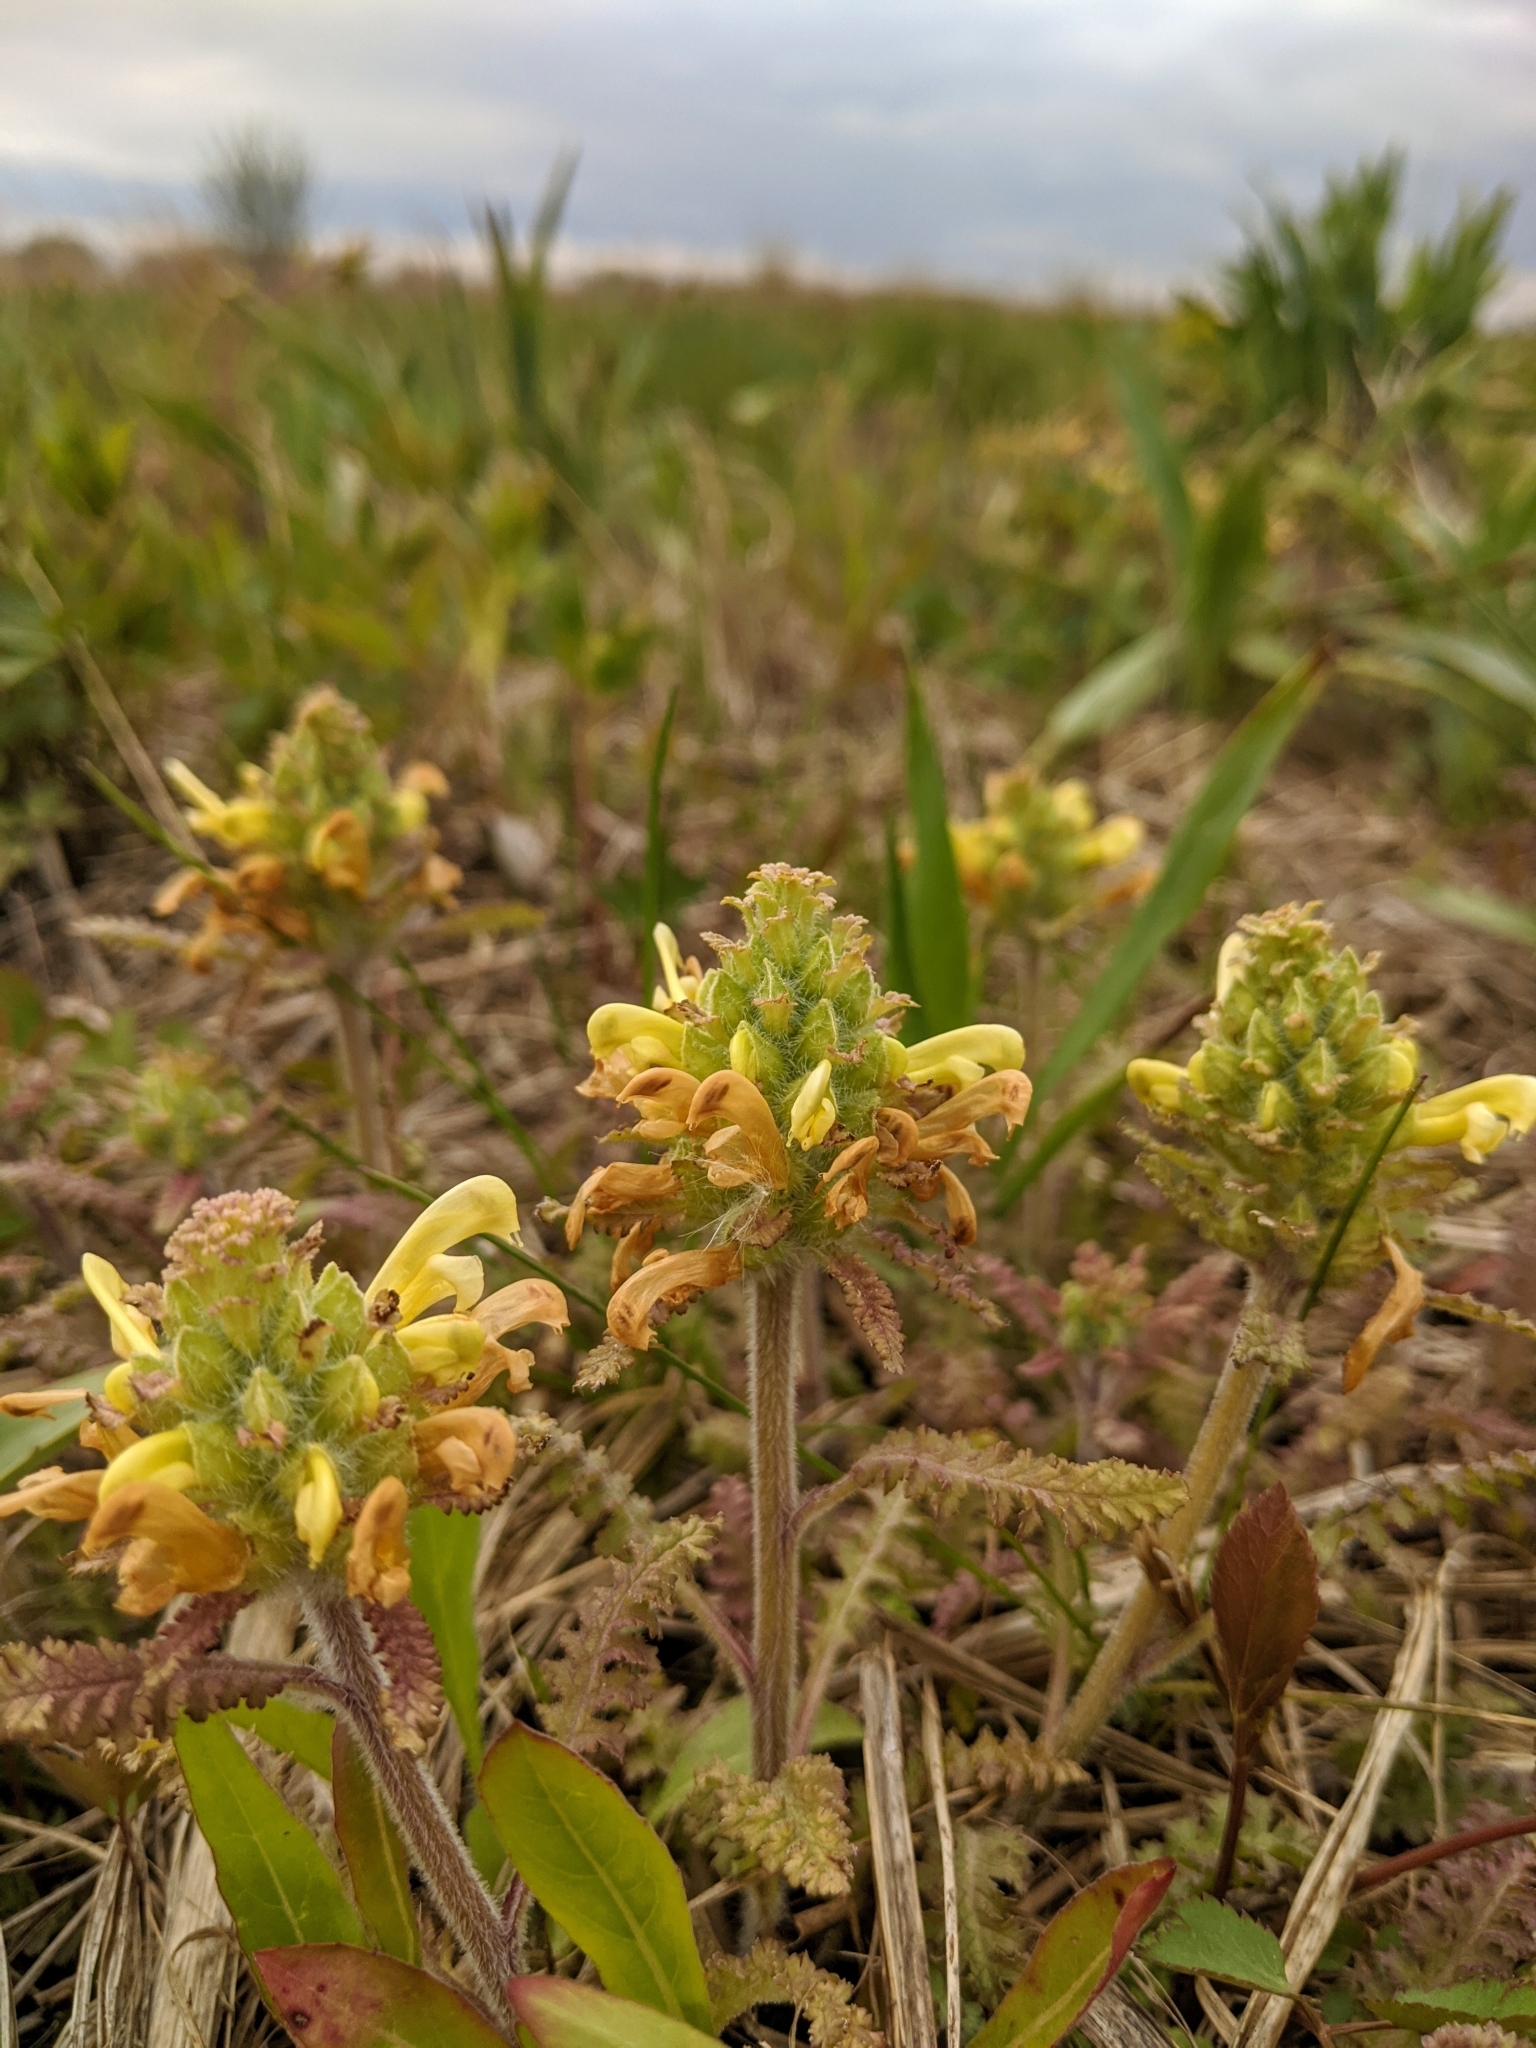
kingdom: Plantae
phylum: Tracheophyta
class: Magnoliopsida
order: Lamiales
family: Orobanchaceae
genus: Pedicularis
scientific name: Pedicularis canadensis
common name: Early lousewort
